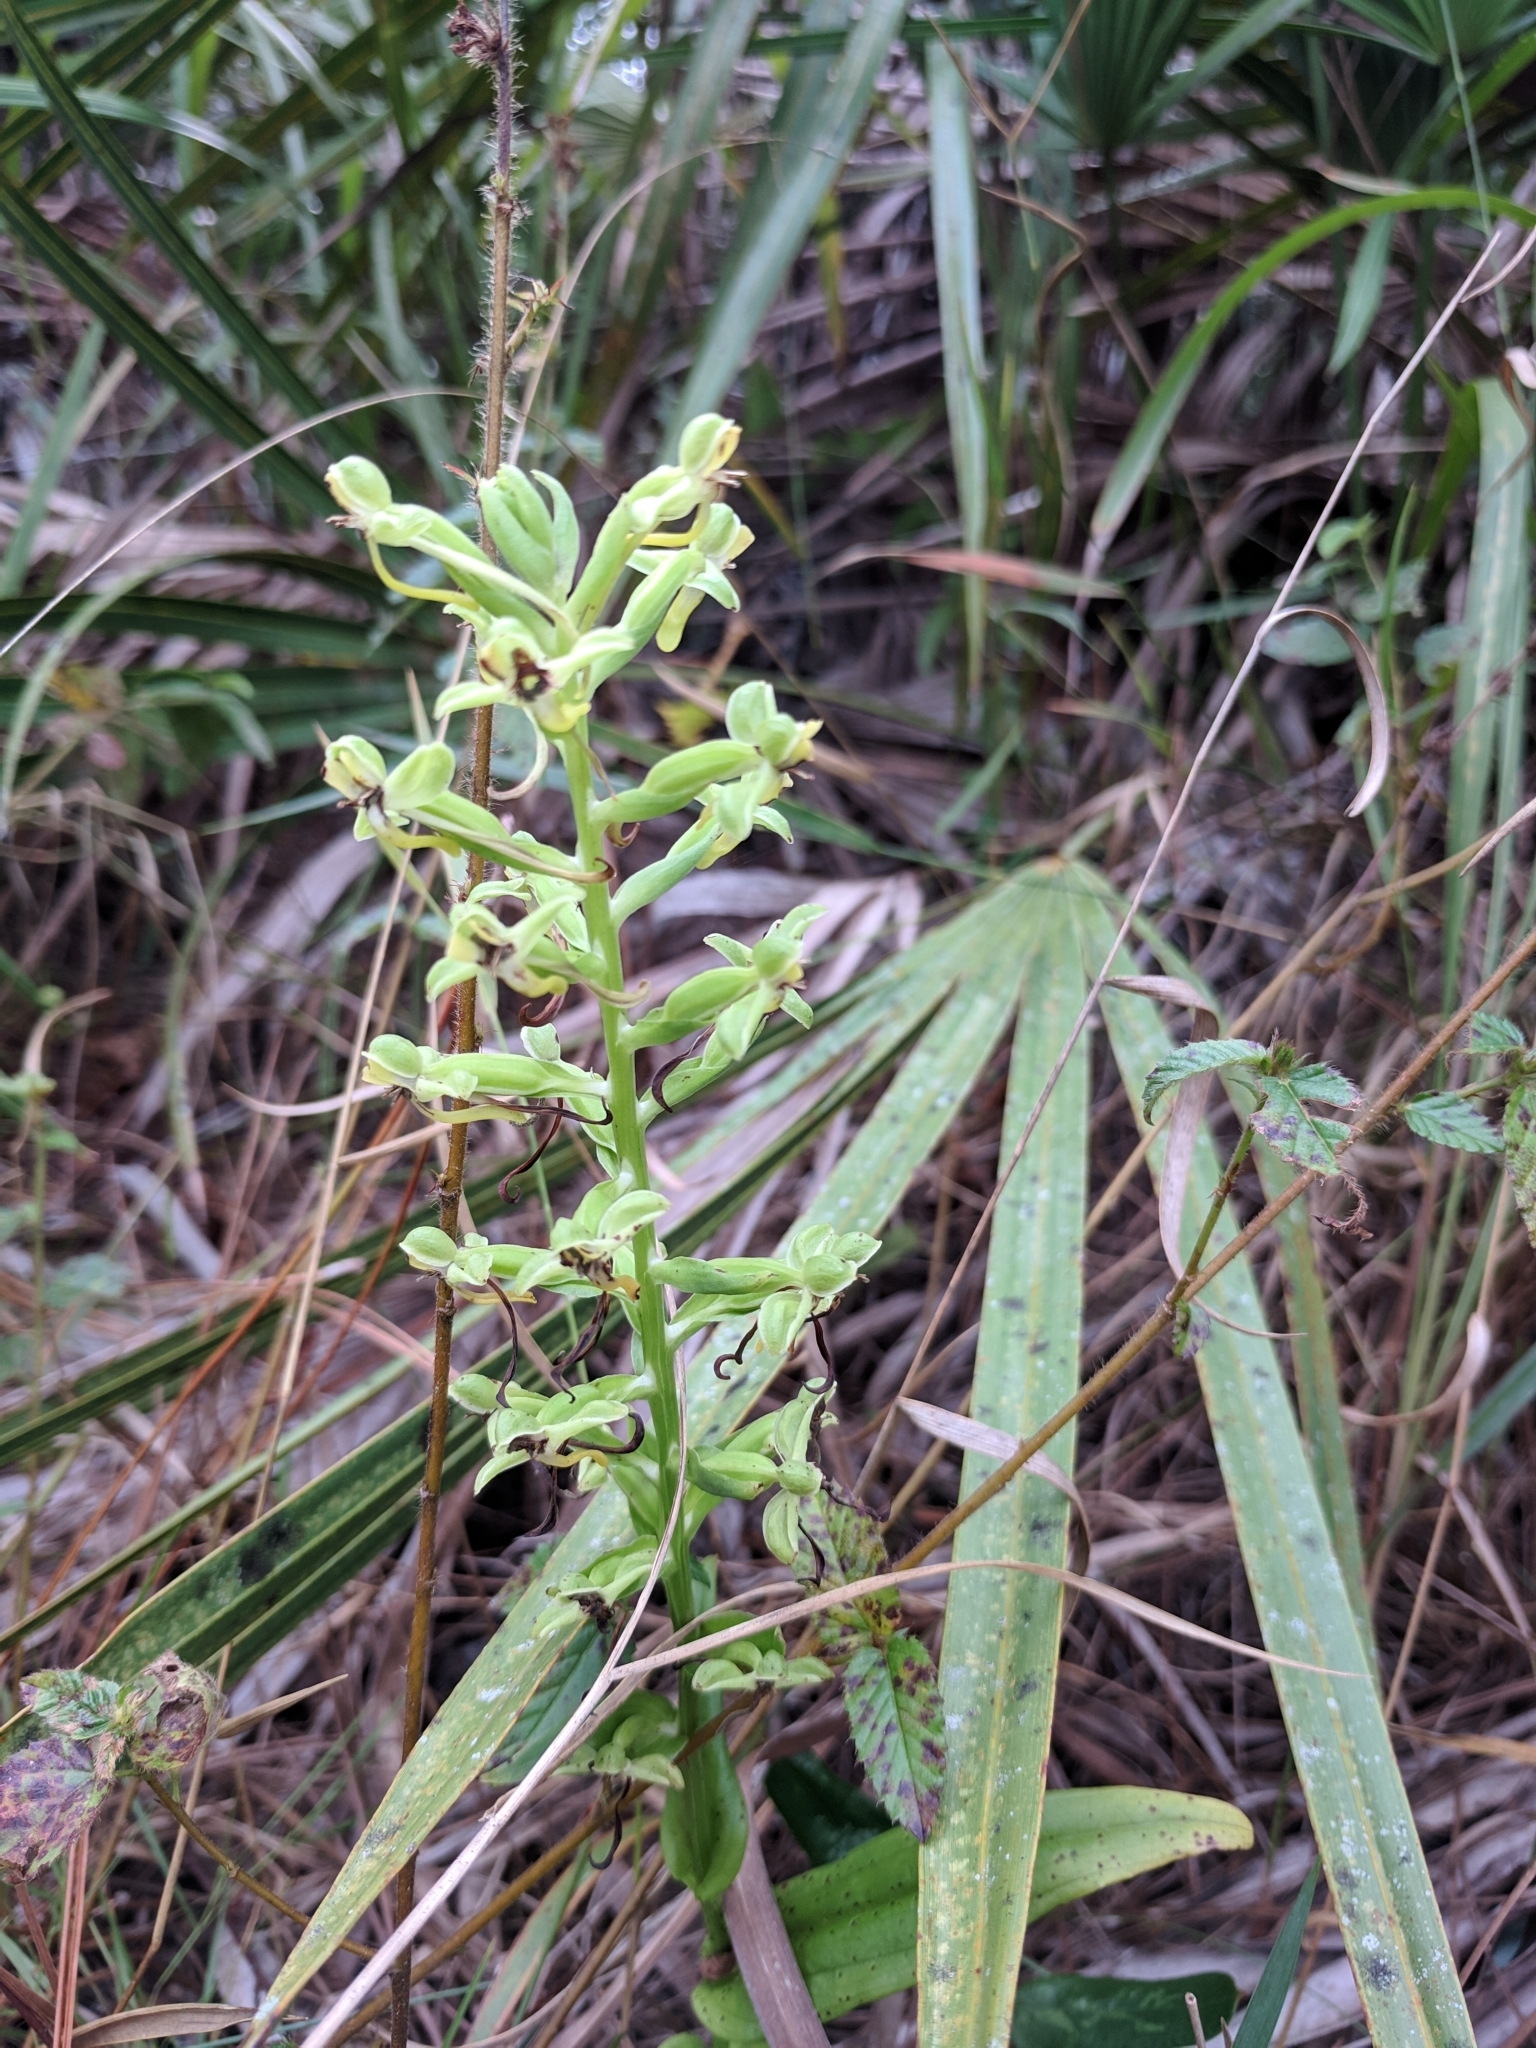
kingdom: Plantae
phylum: Tracheophyta
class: Liliopsida
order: Asparagales
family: Orchidaceae
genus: Habenaria
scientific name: Habenaria floribunda
